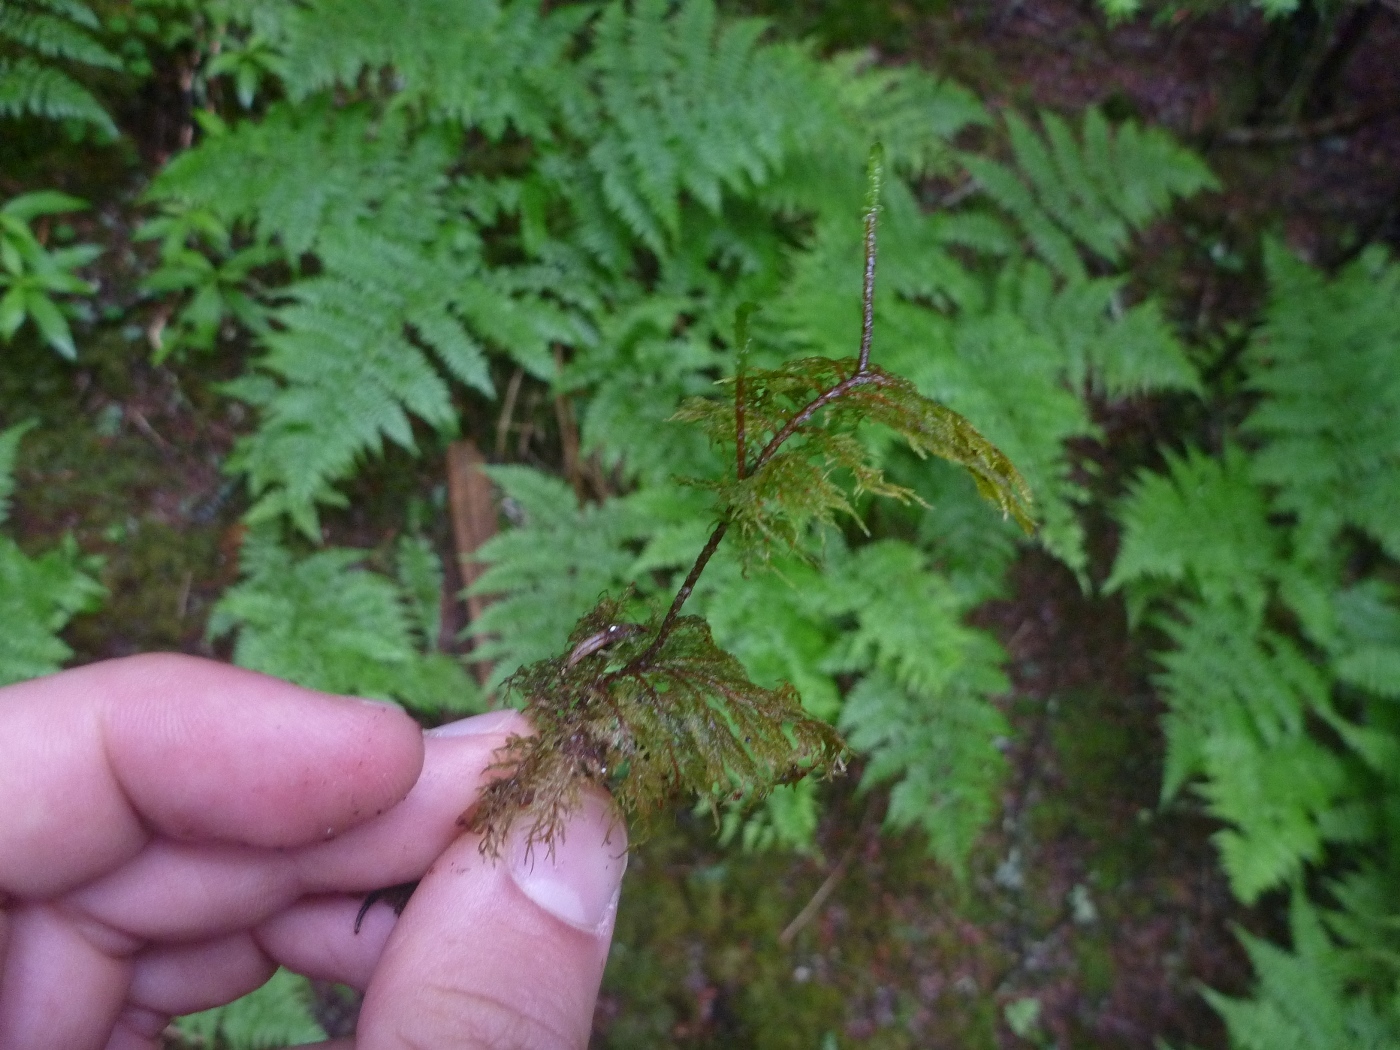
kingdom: Plantae
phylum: Bryophyta
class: Bryopsida
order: Hypnales
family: Hylocomiaceae
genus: Hylocomium
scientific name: Hylocomium splendens
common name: Stairstep moss
